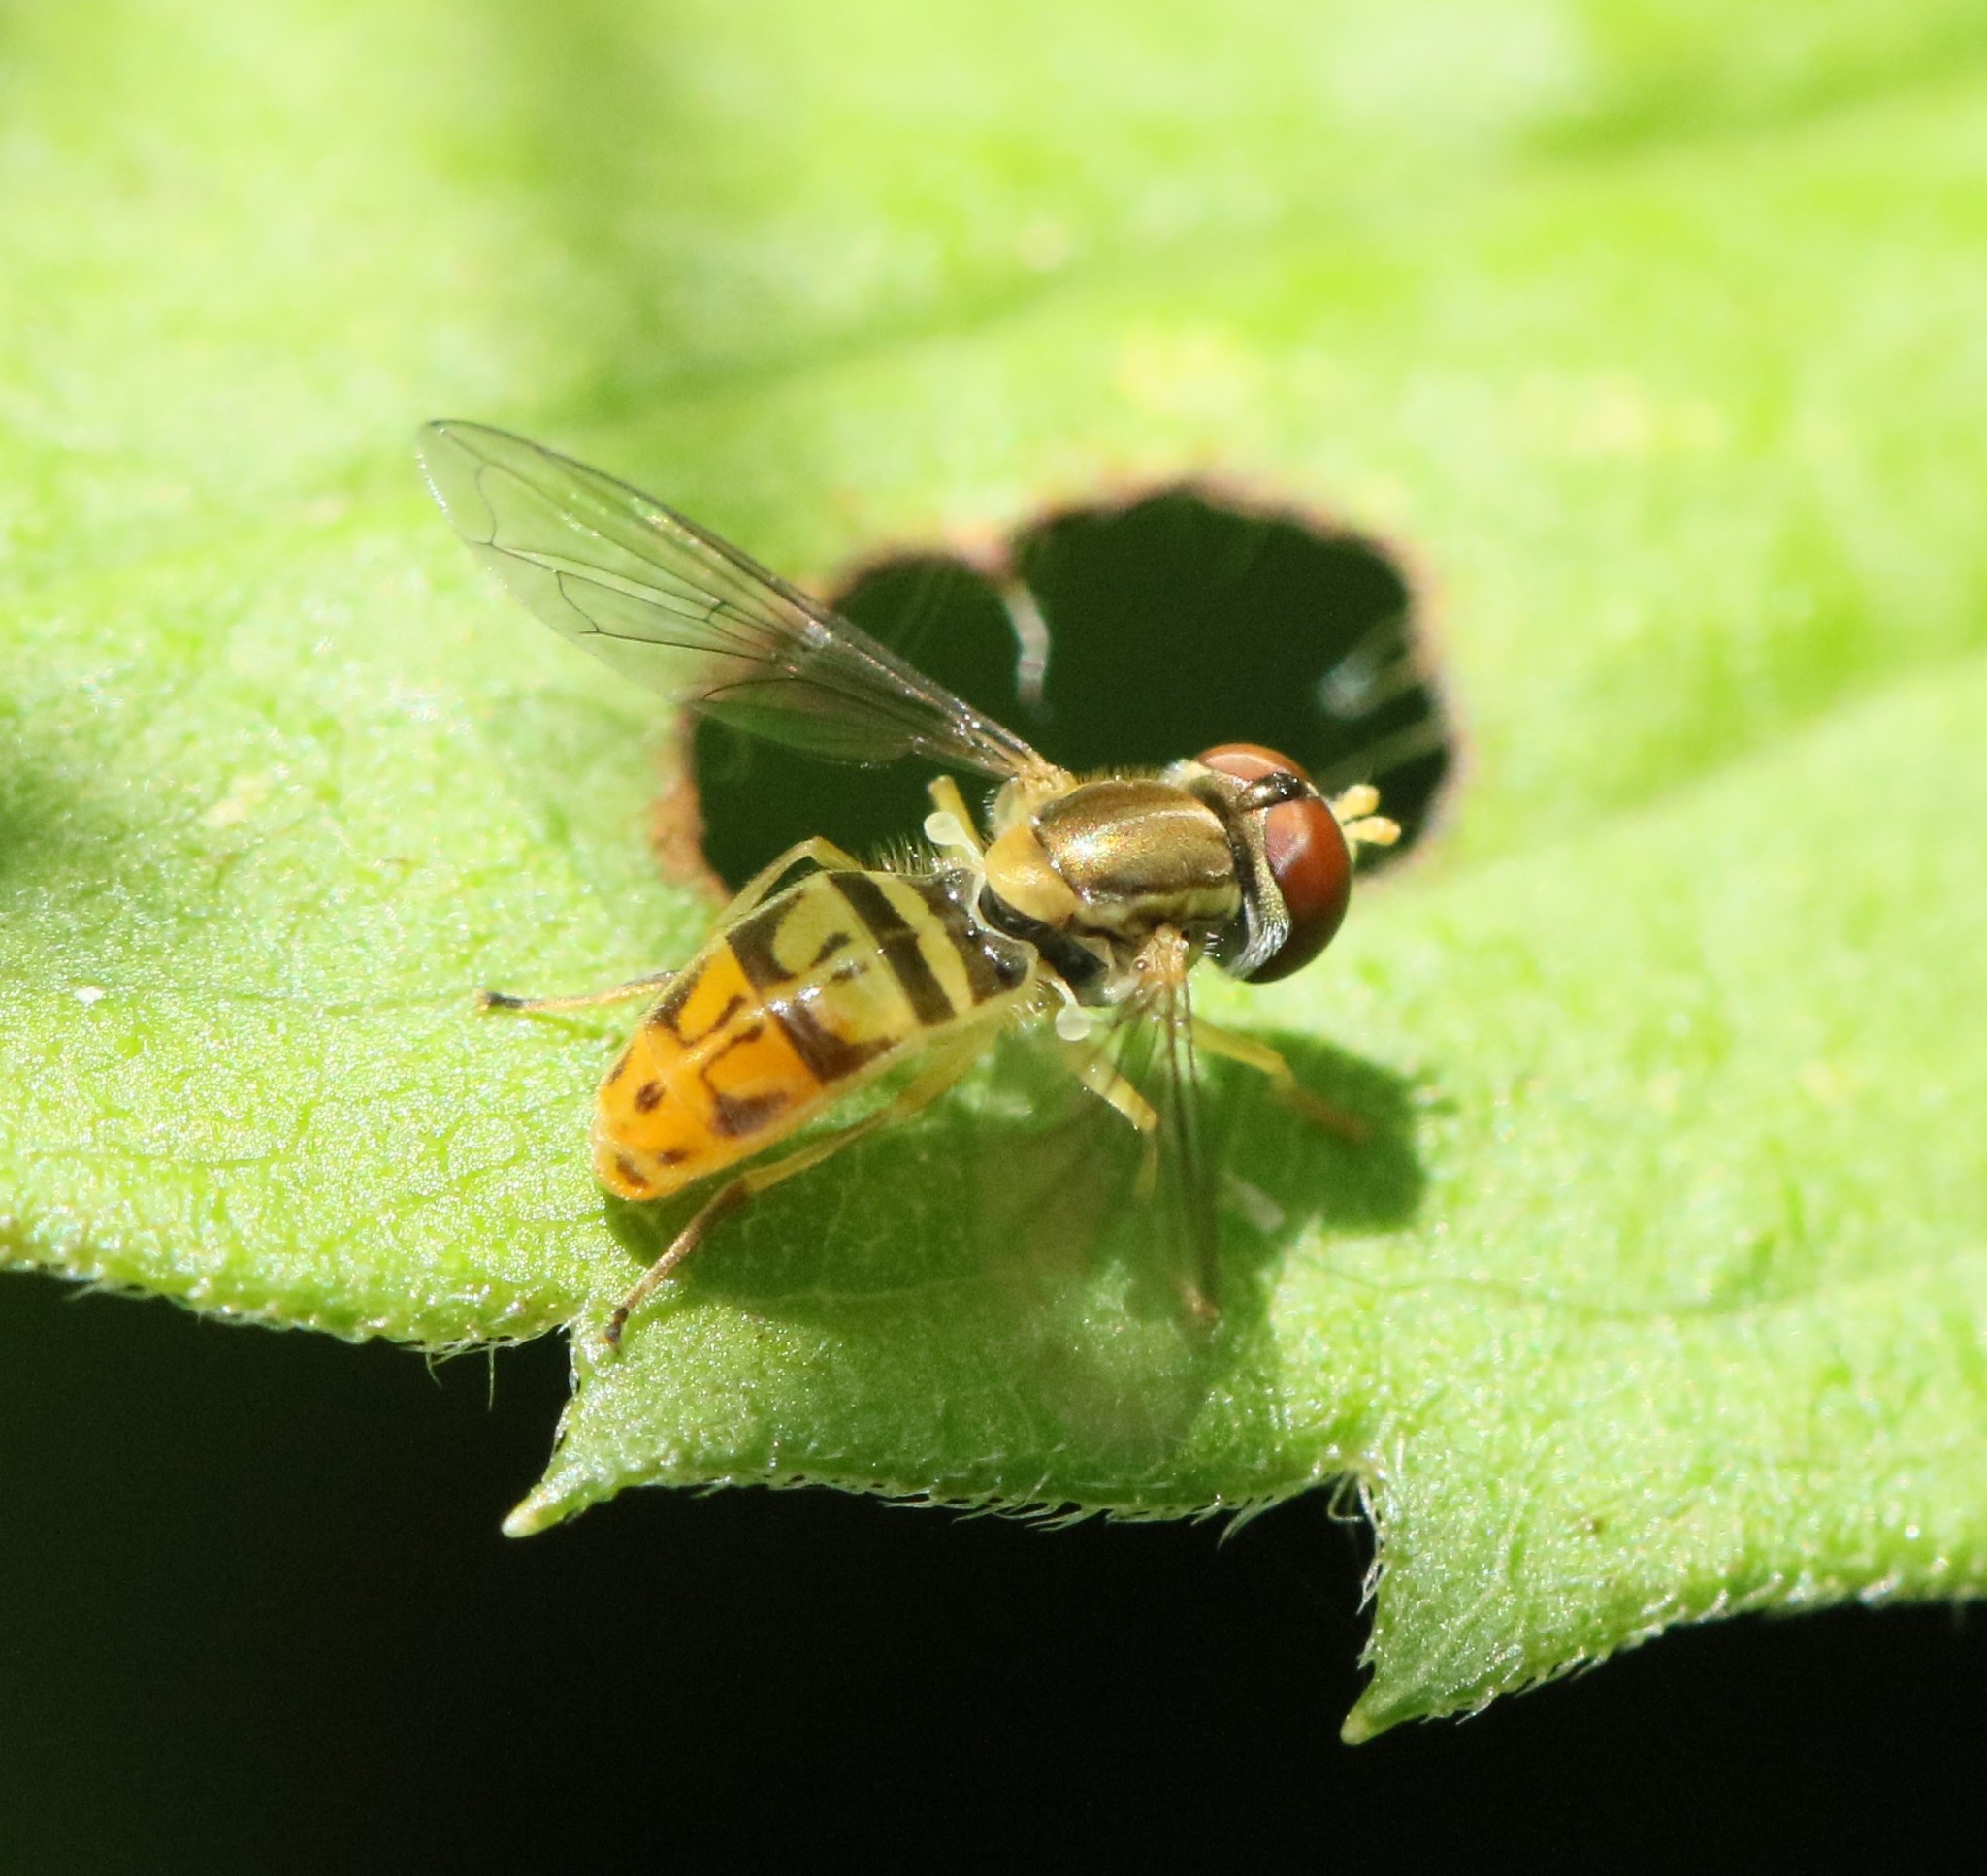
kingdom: Animalia
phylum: Arthropoda
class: Insecta
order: Diptera
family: Syrphidae
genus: Toxomerus
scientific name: Toxomerus marginatus
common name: Syrphid fly
